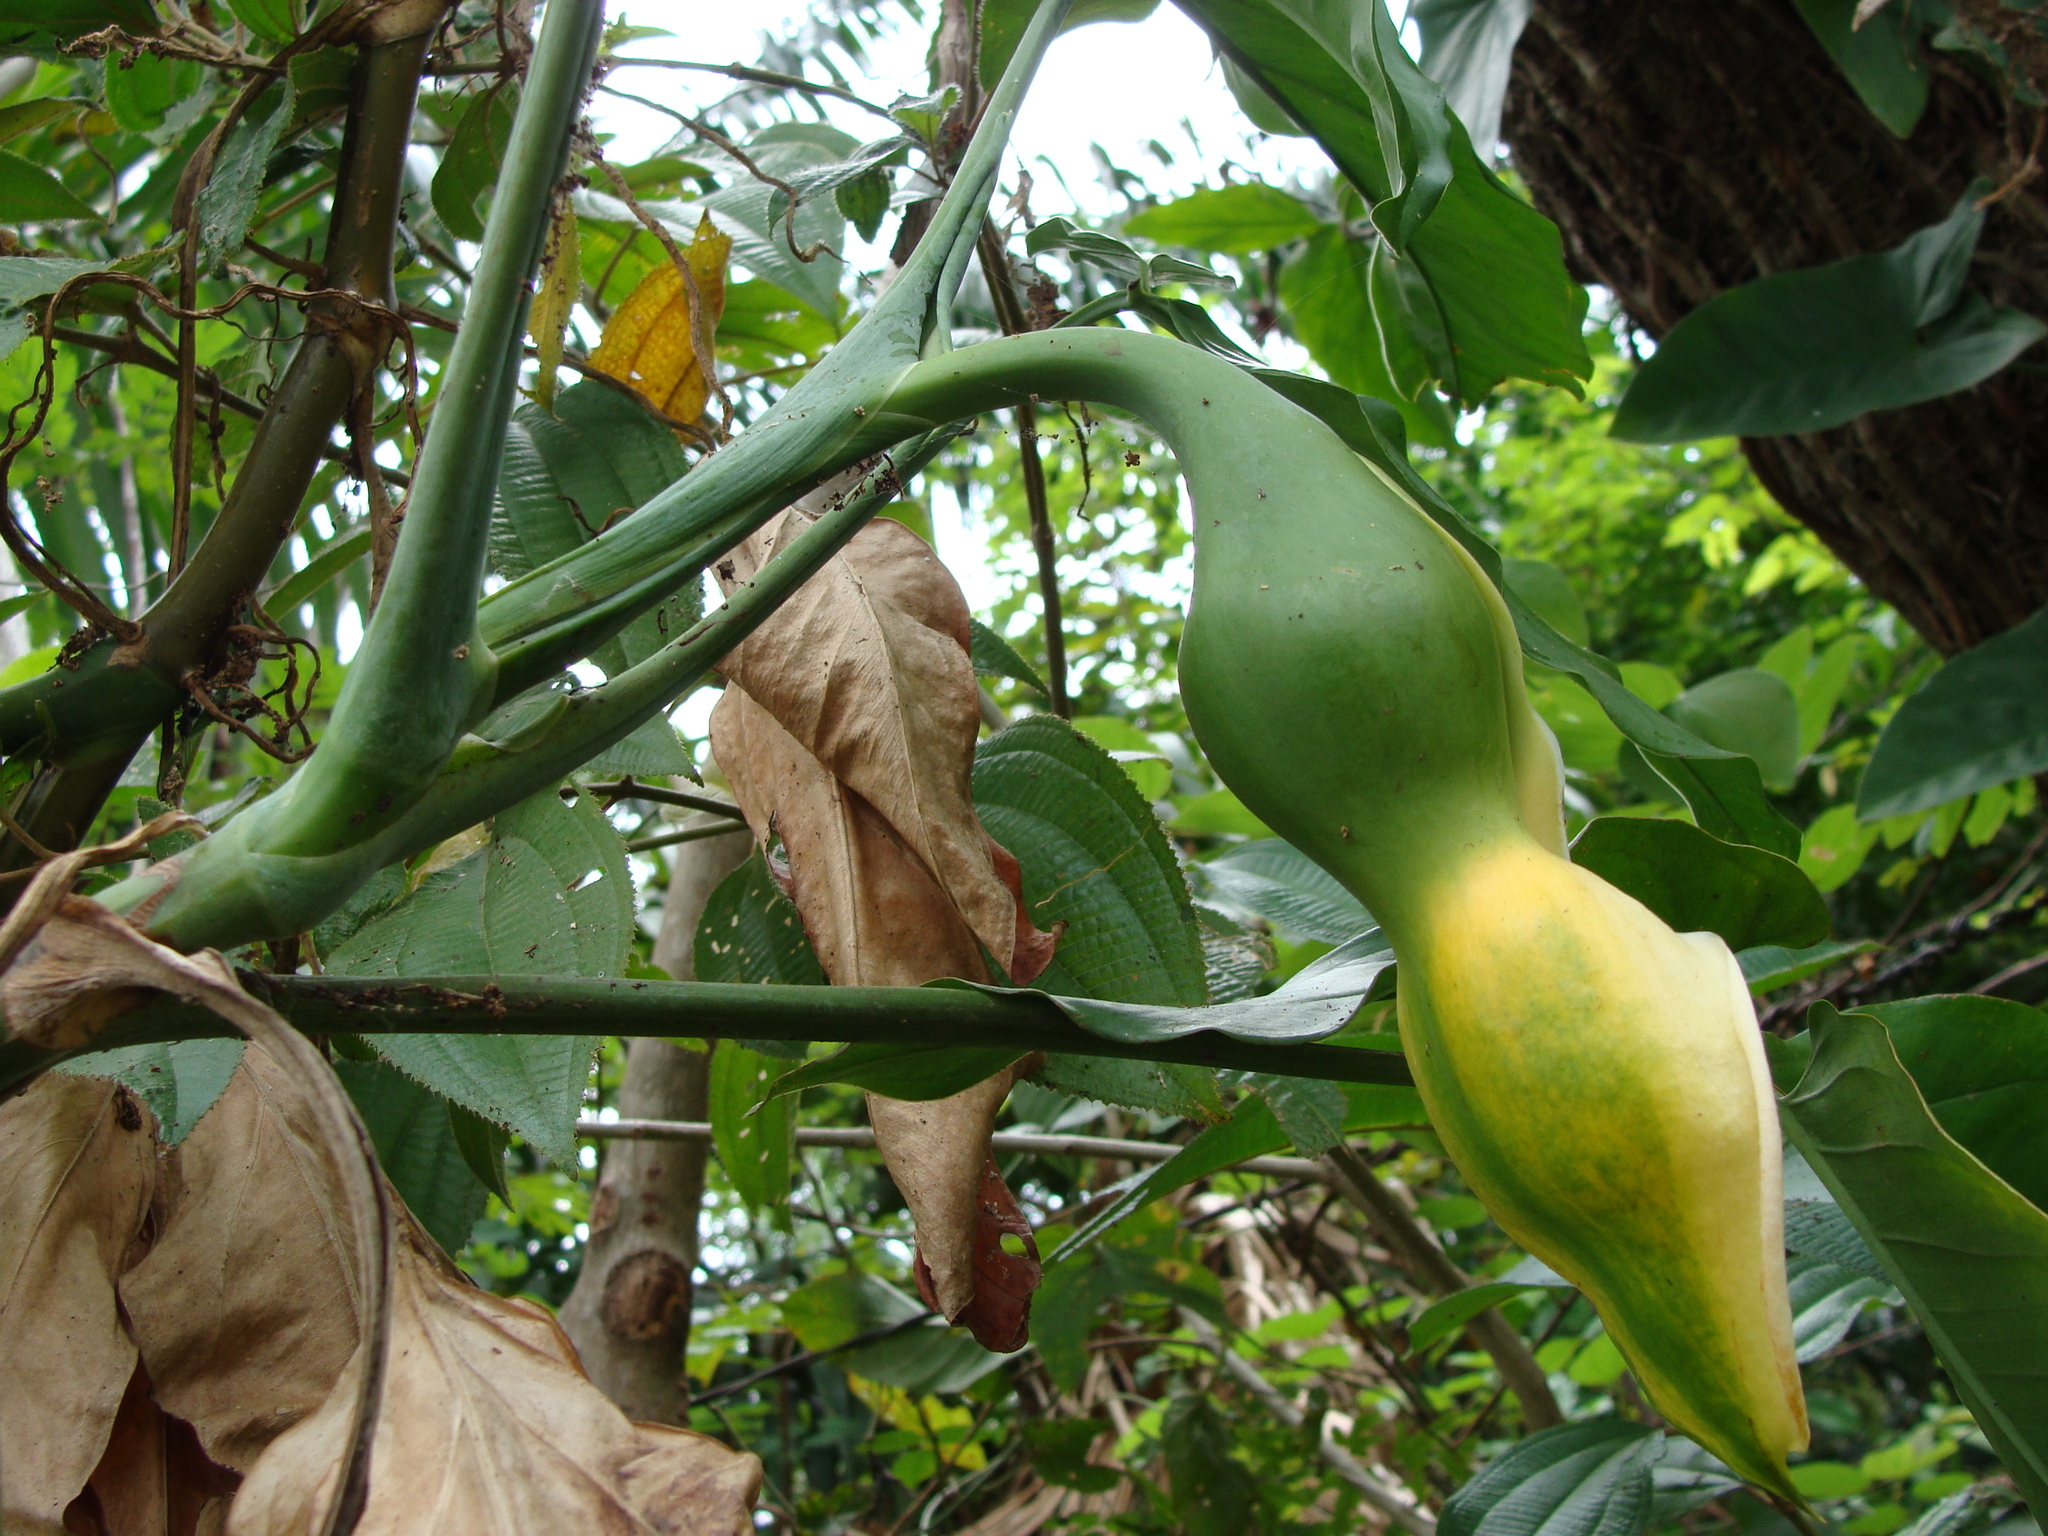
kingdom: Plantae
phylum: Tracheophyta
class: Liliopsida
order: Alismatales
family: Araceae
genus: Syngonium
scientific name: Syngonium podophyllum
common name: American evergreen
